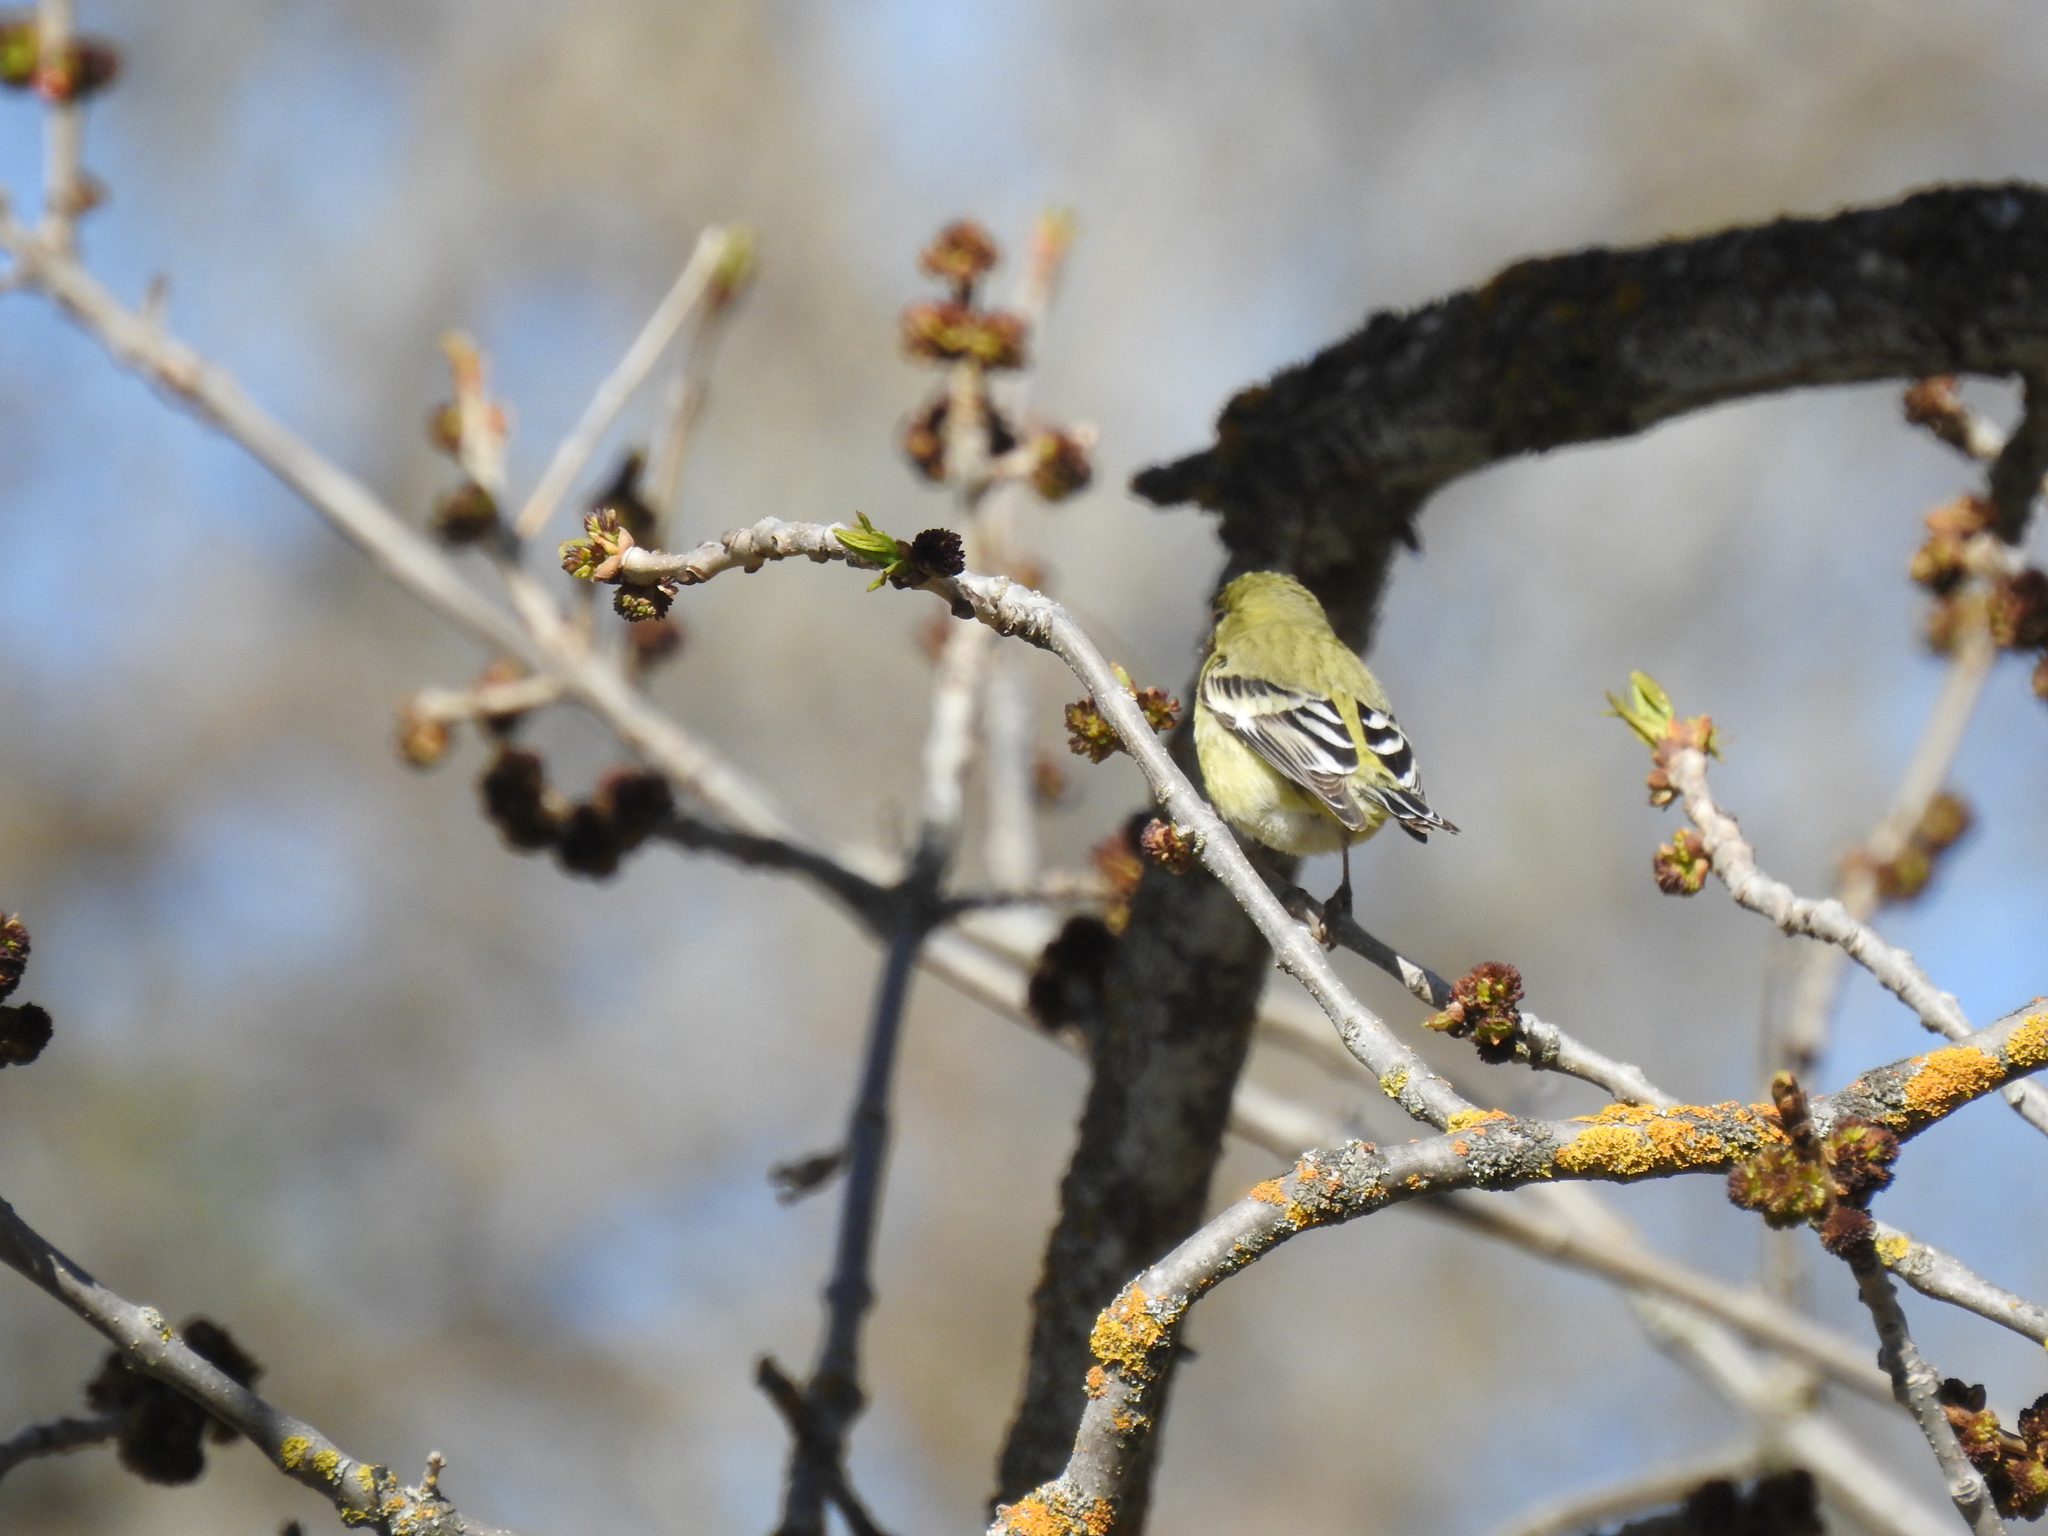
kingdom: Animalia
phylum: Chordata
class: Aves
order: Passeriformes
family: Fringillidae
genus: Spinus
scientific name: Spinus psaltria
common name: Lesser goldfinch
